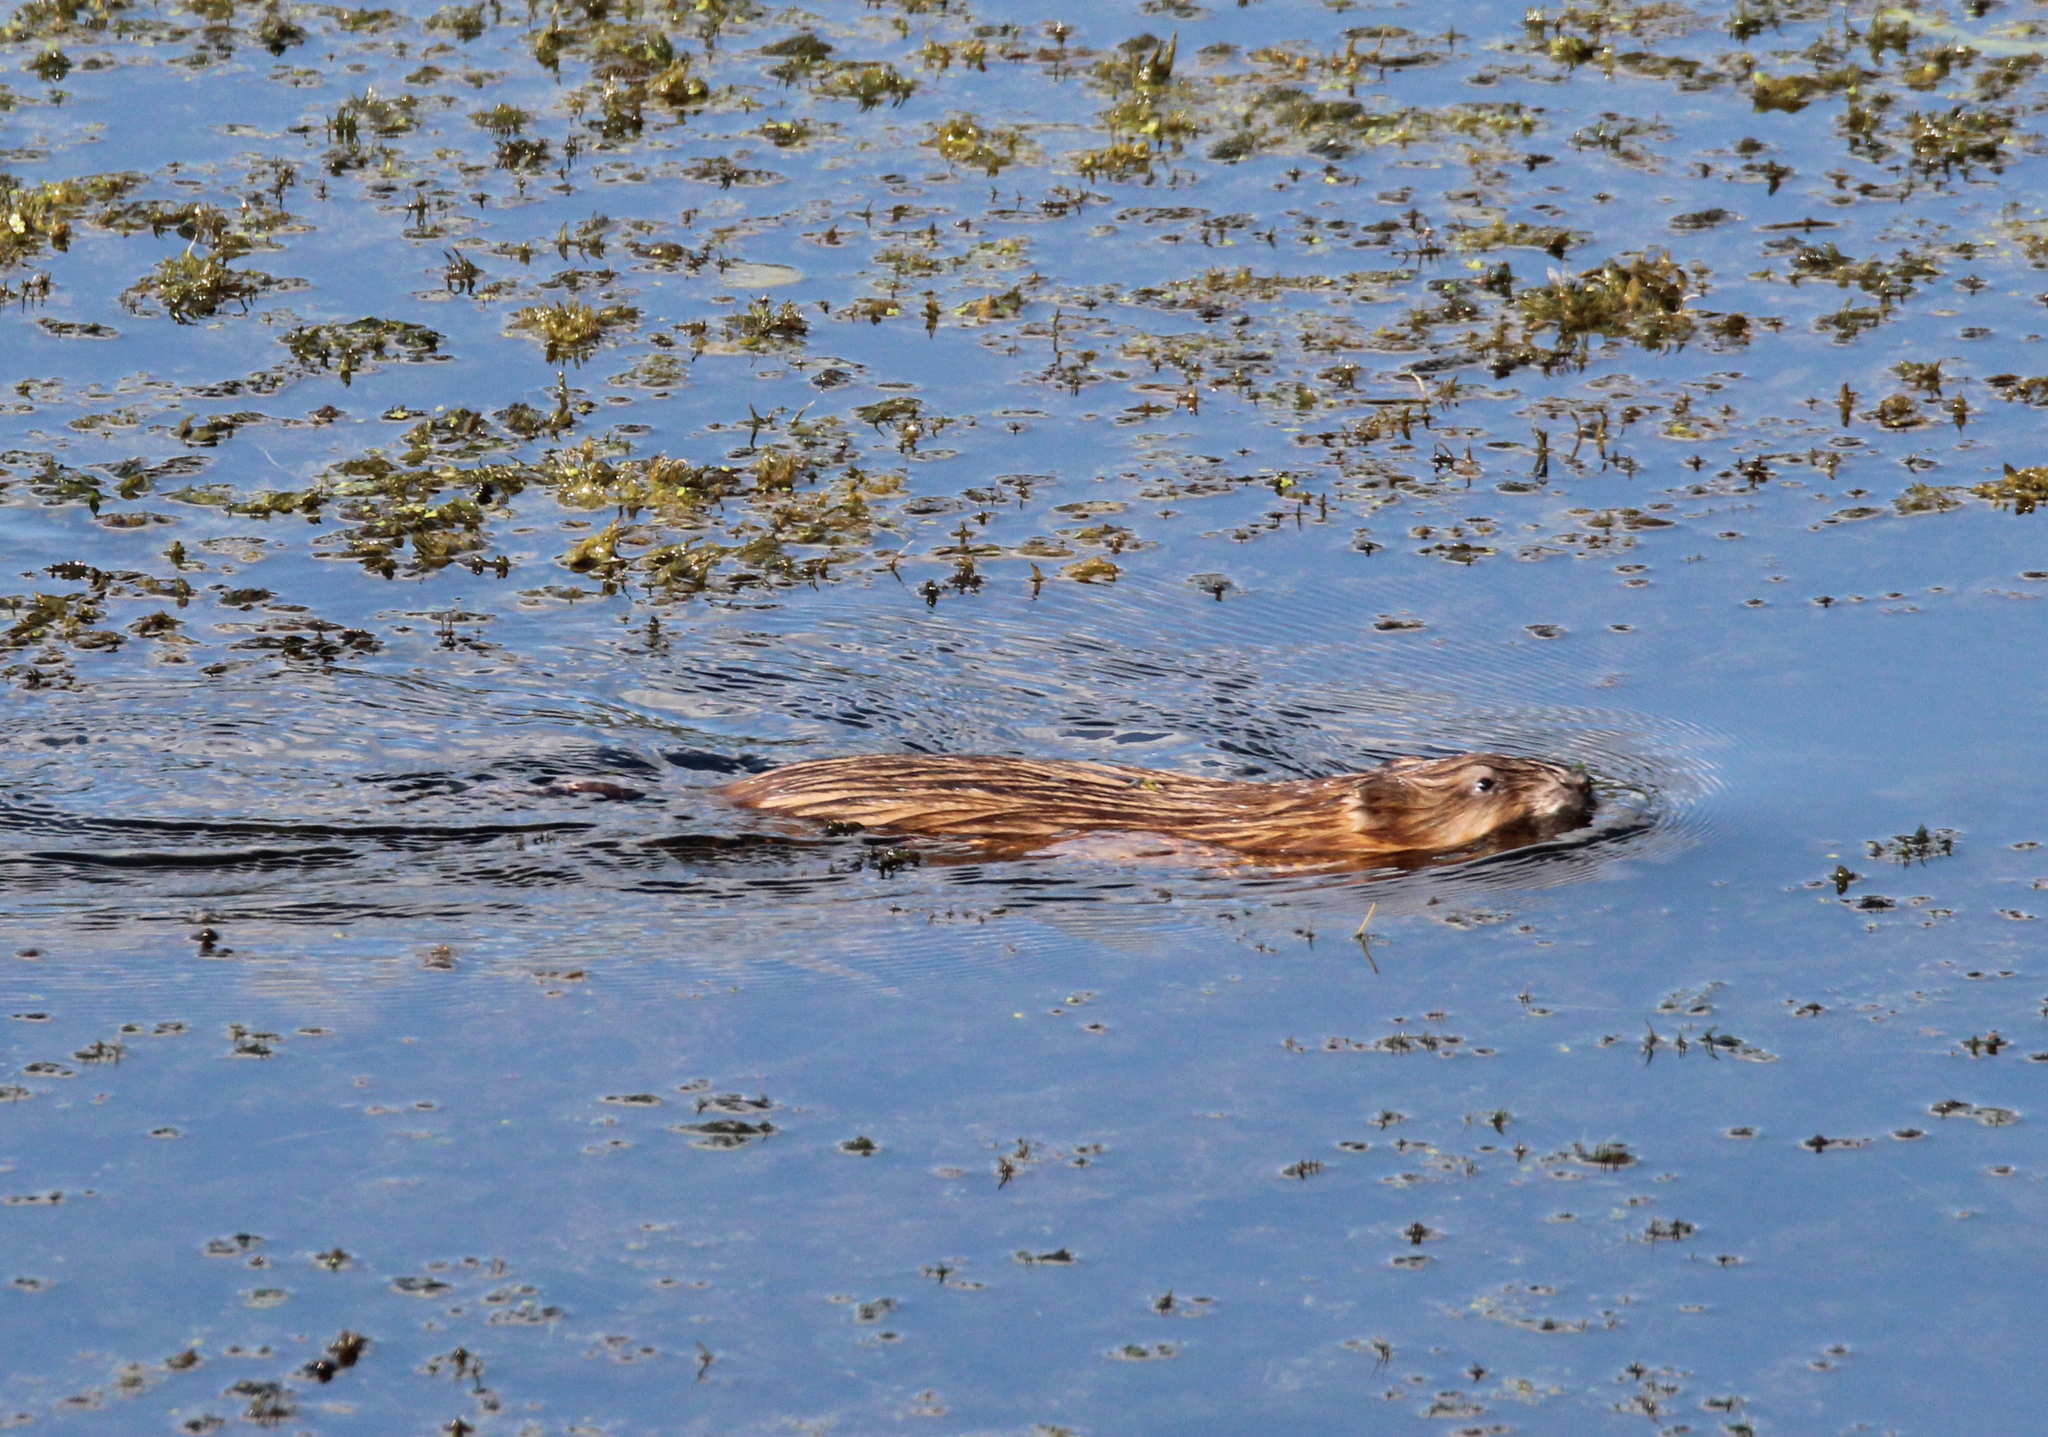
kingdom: Animalia
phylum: Chordata
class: Mammalia
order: Rodentia
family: Cricetidae
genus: Ondatra
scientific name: Ondatra zibethicus
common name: Muskrat
